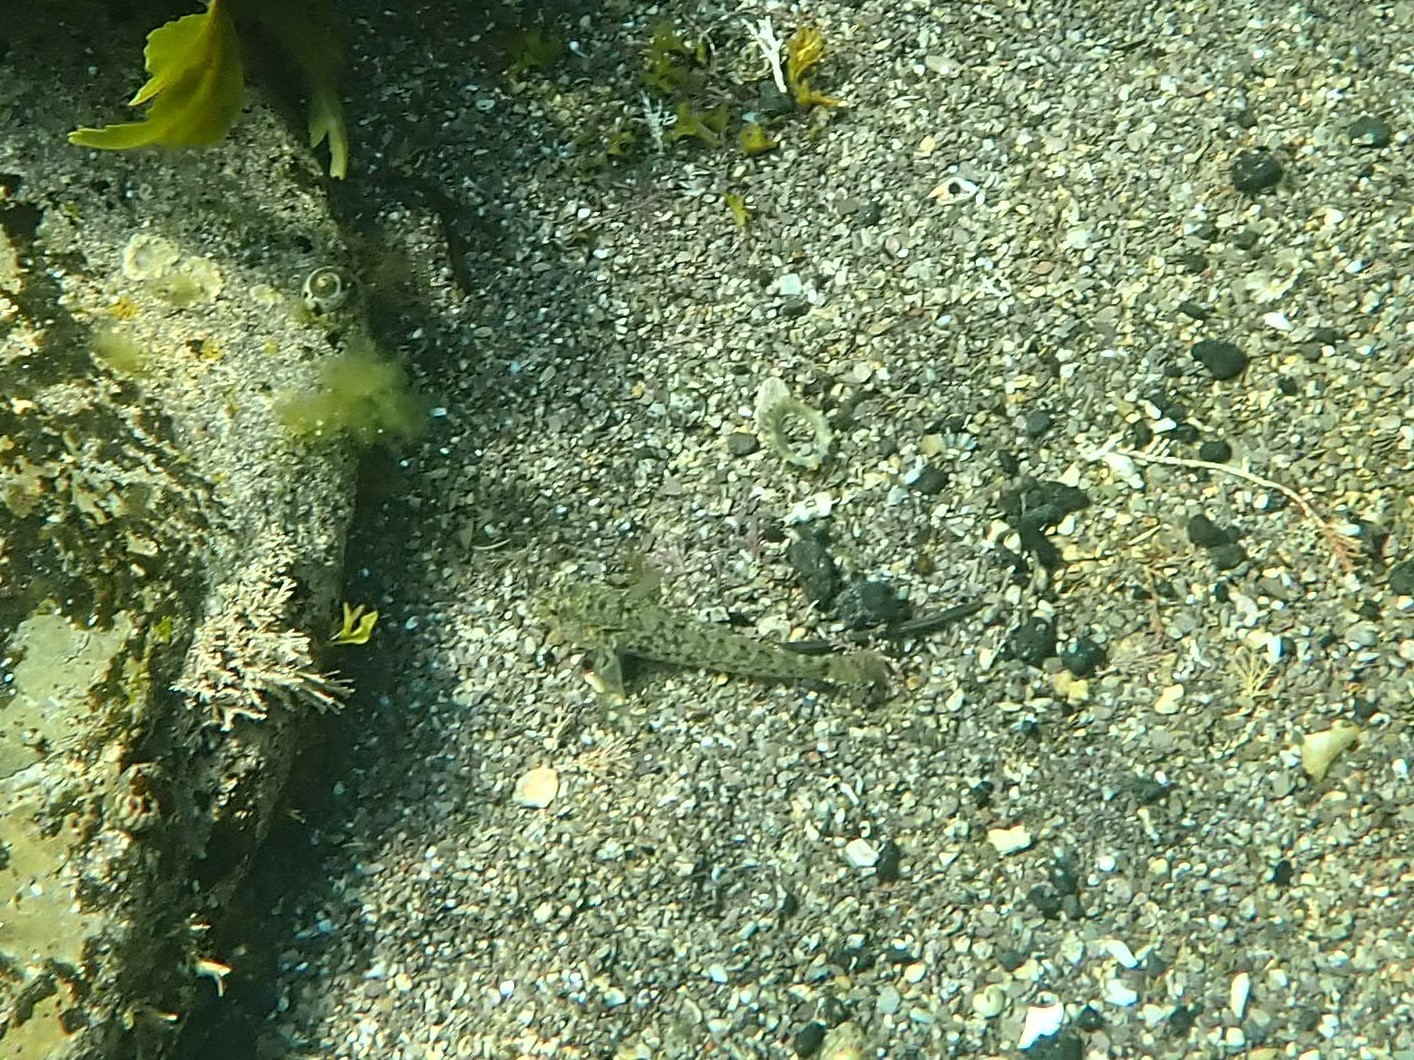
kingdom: Animalia
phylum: Chordata
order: Perciformes
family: Gobiidae
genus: Gobius
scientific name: Gobius paganellus
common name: Rock goby
